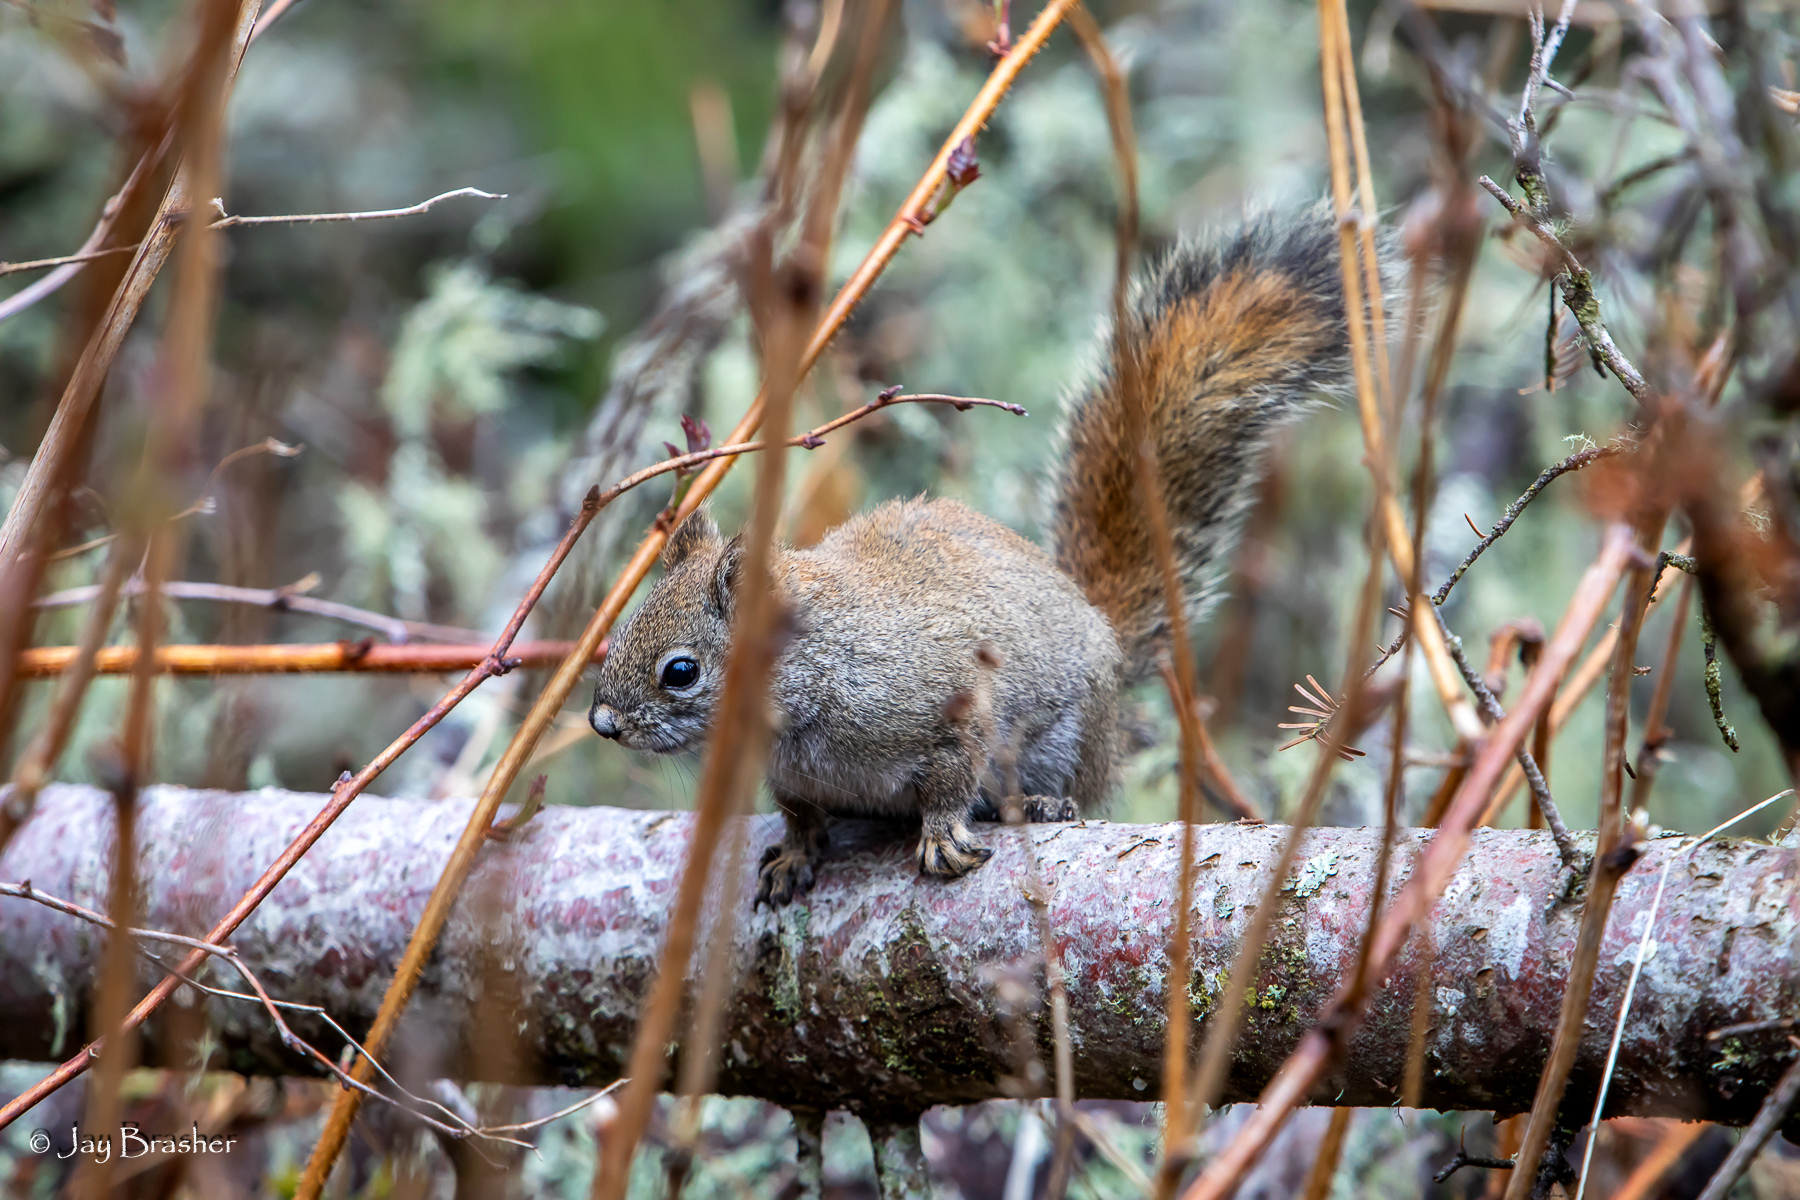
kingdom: Animalia
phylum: Chordata
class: Mammalia
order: Rodentia
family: Sciuridae
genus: Tamiasciurus
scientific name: Tamiasciurus hudsonicus
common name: Red squirrel
